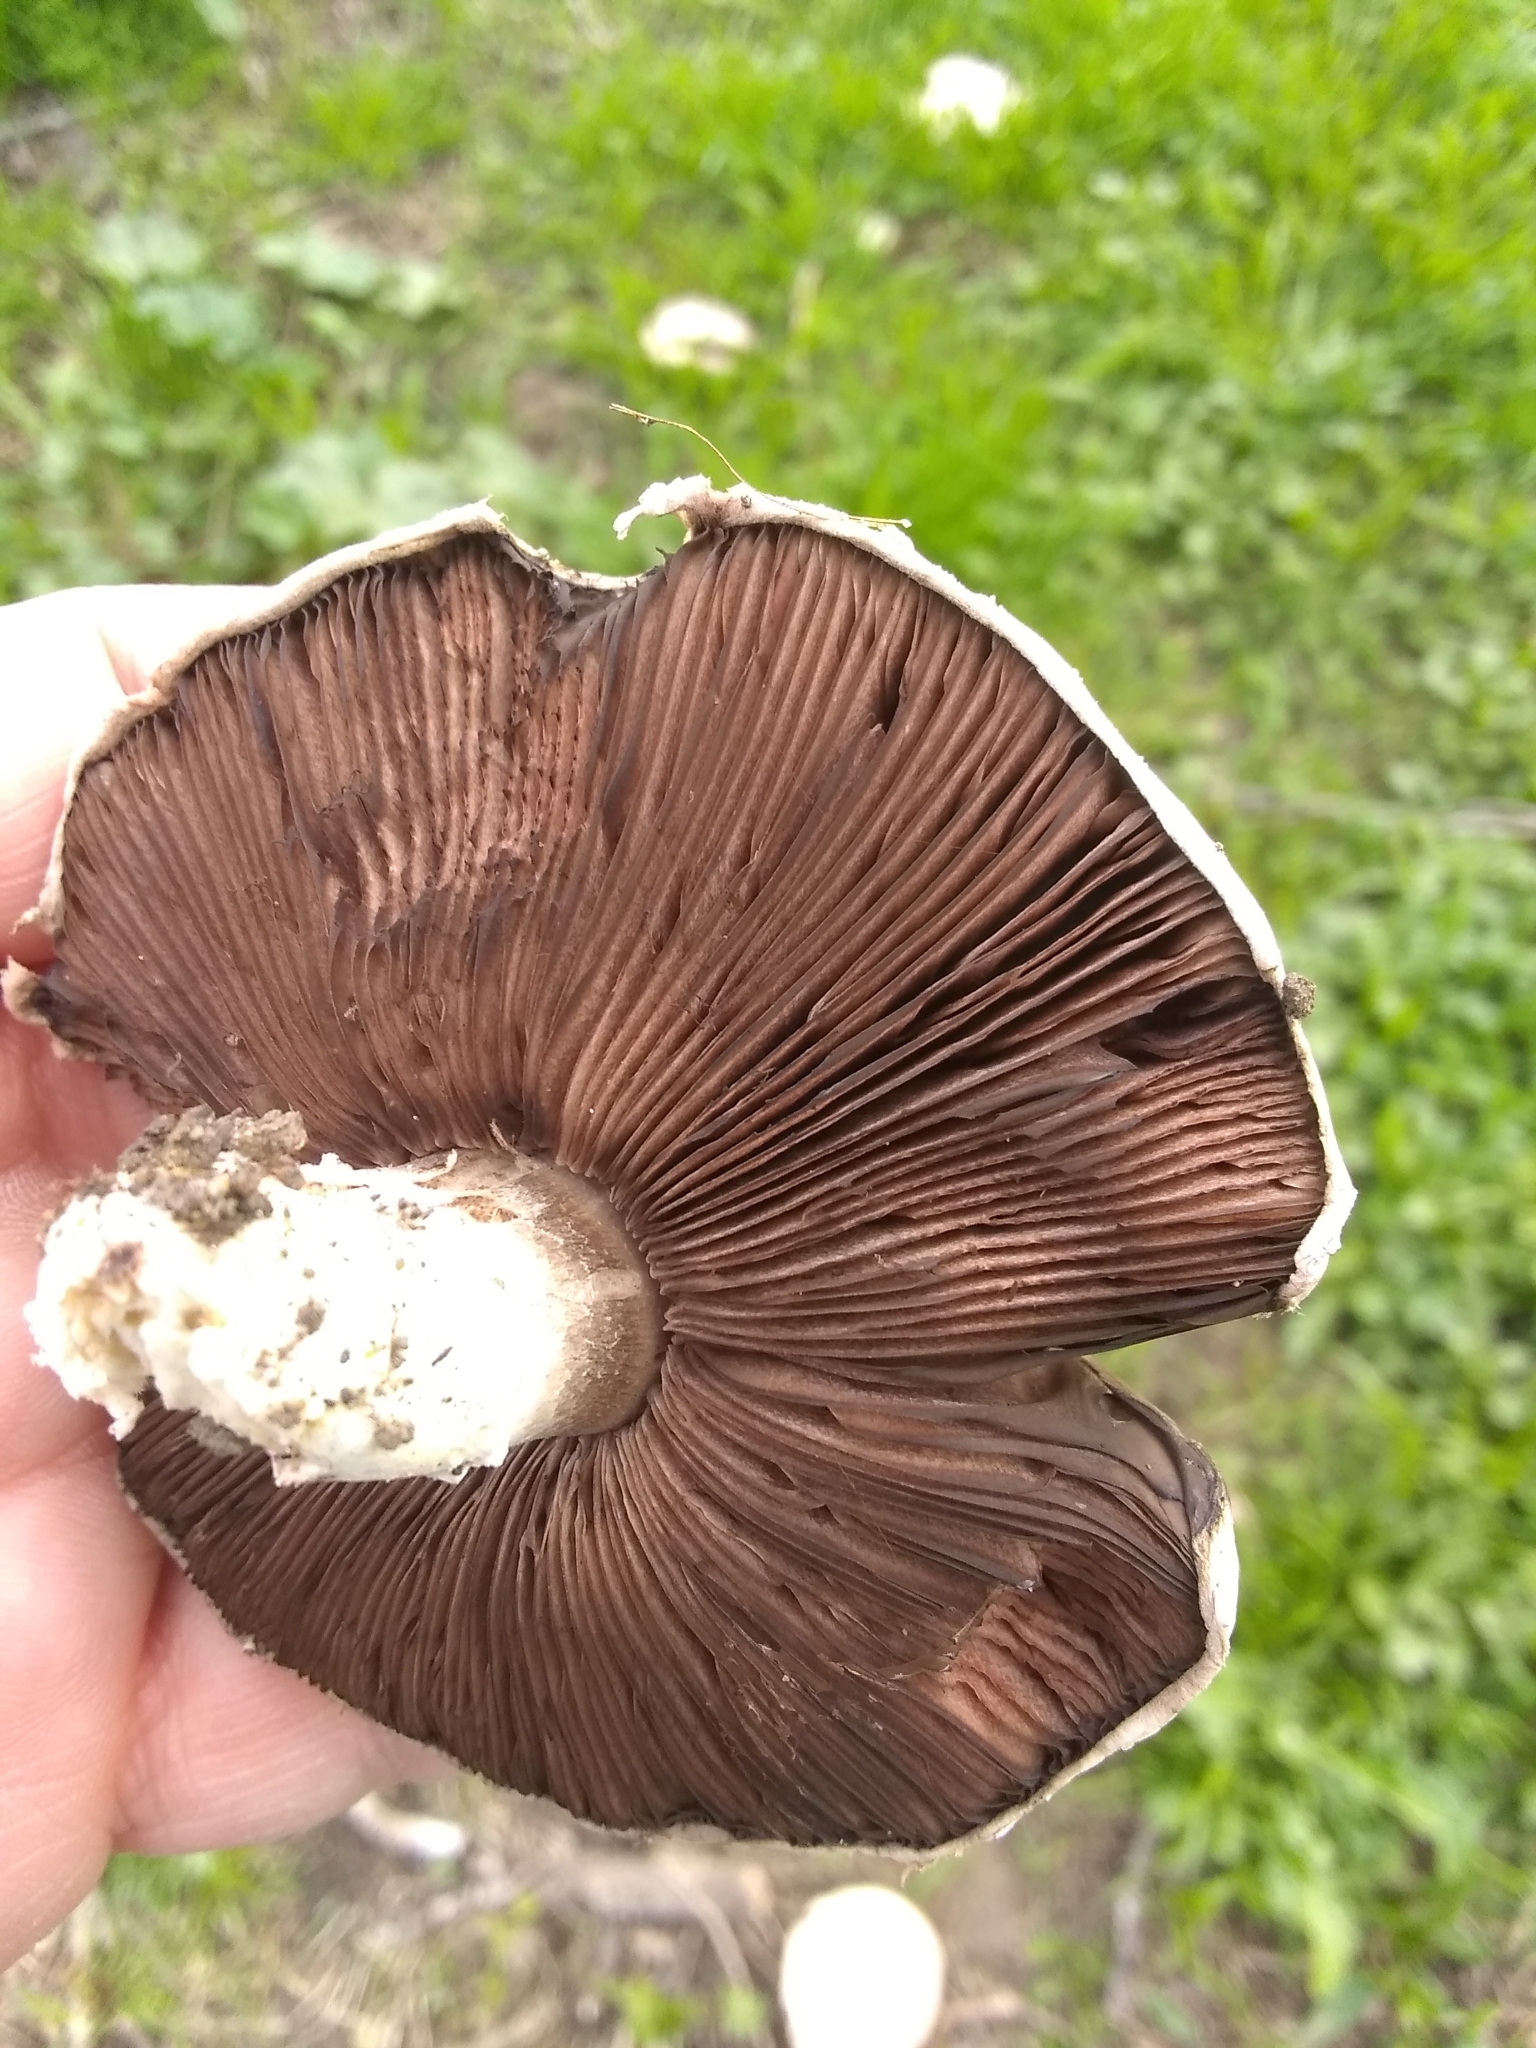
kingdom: Fungi
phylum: Basidiomycota
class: Agaricomycetes
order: Agaricales
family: Agaricaceae
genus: Agaricus
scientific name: Agaricus campestris
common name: Field mushroom
